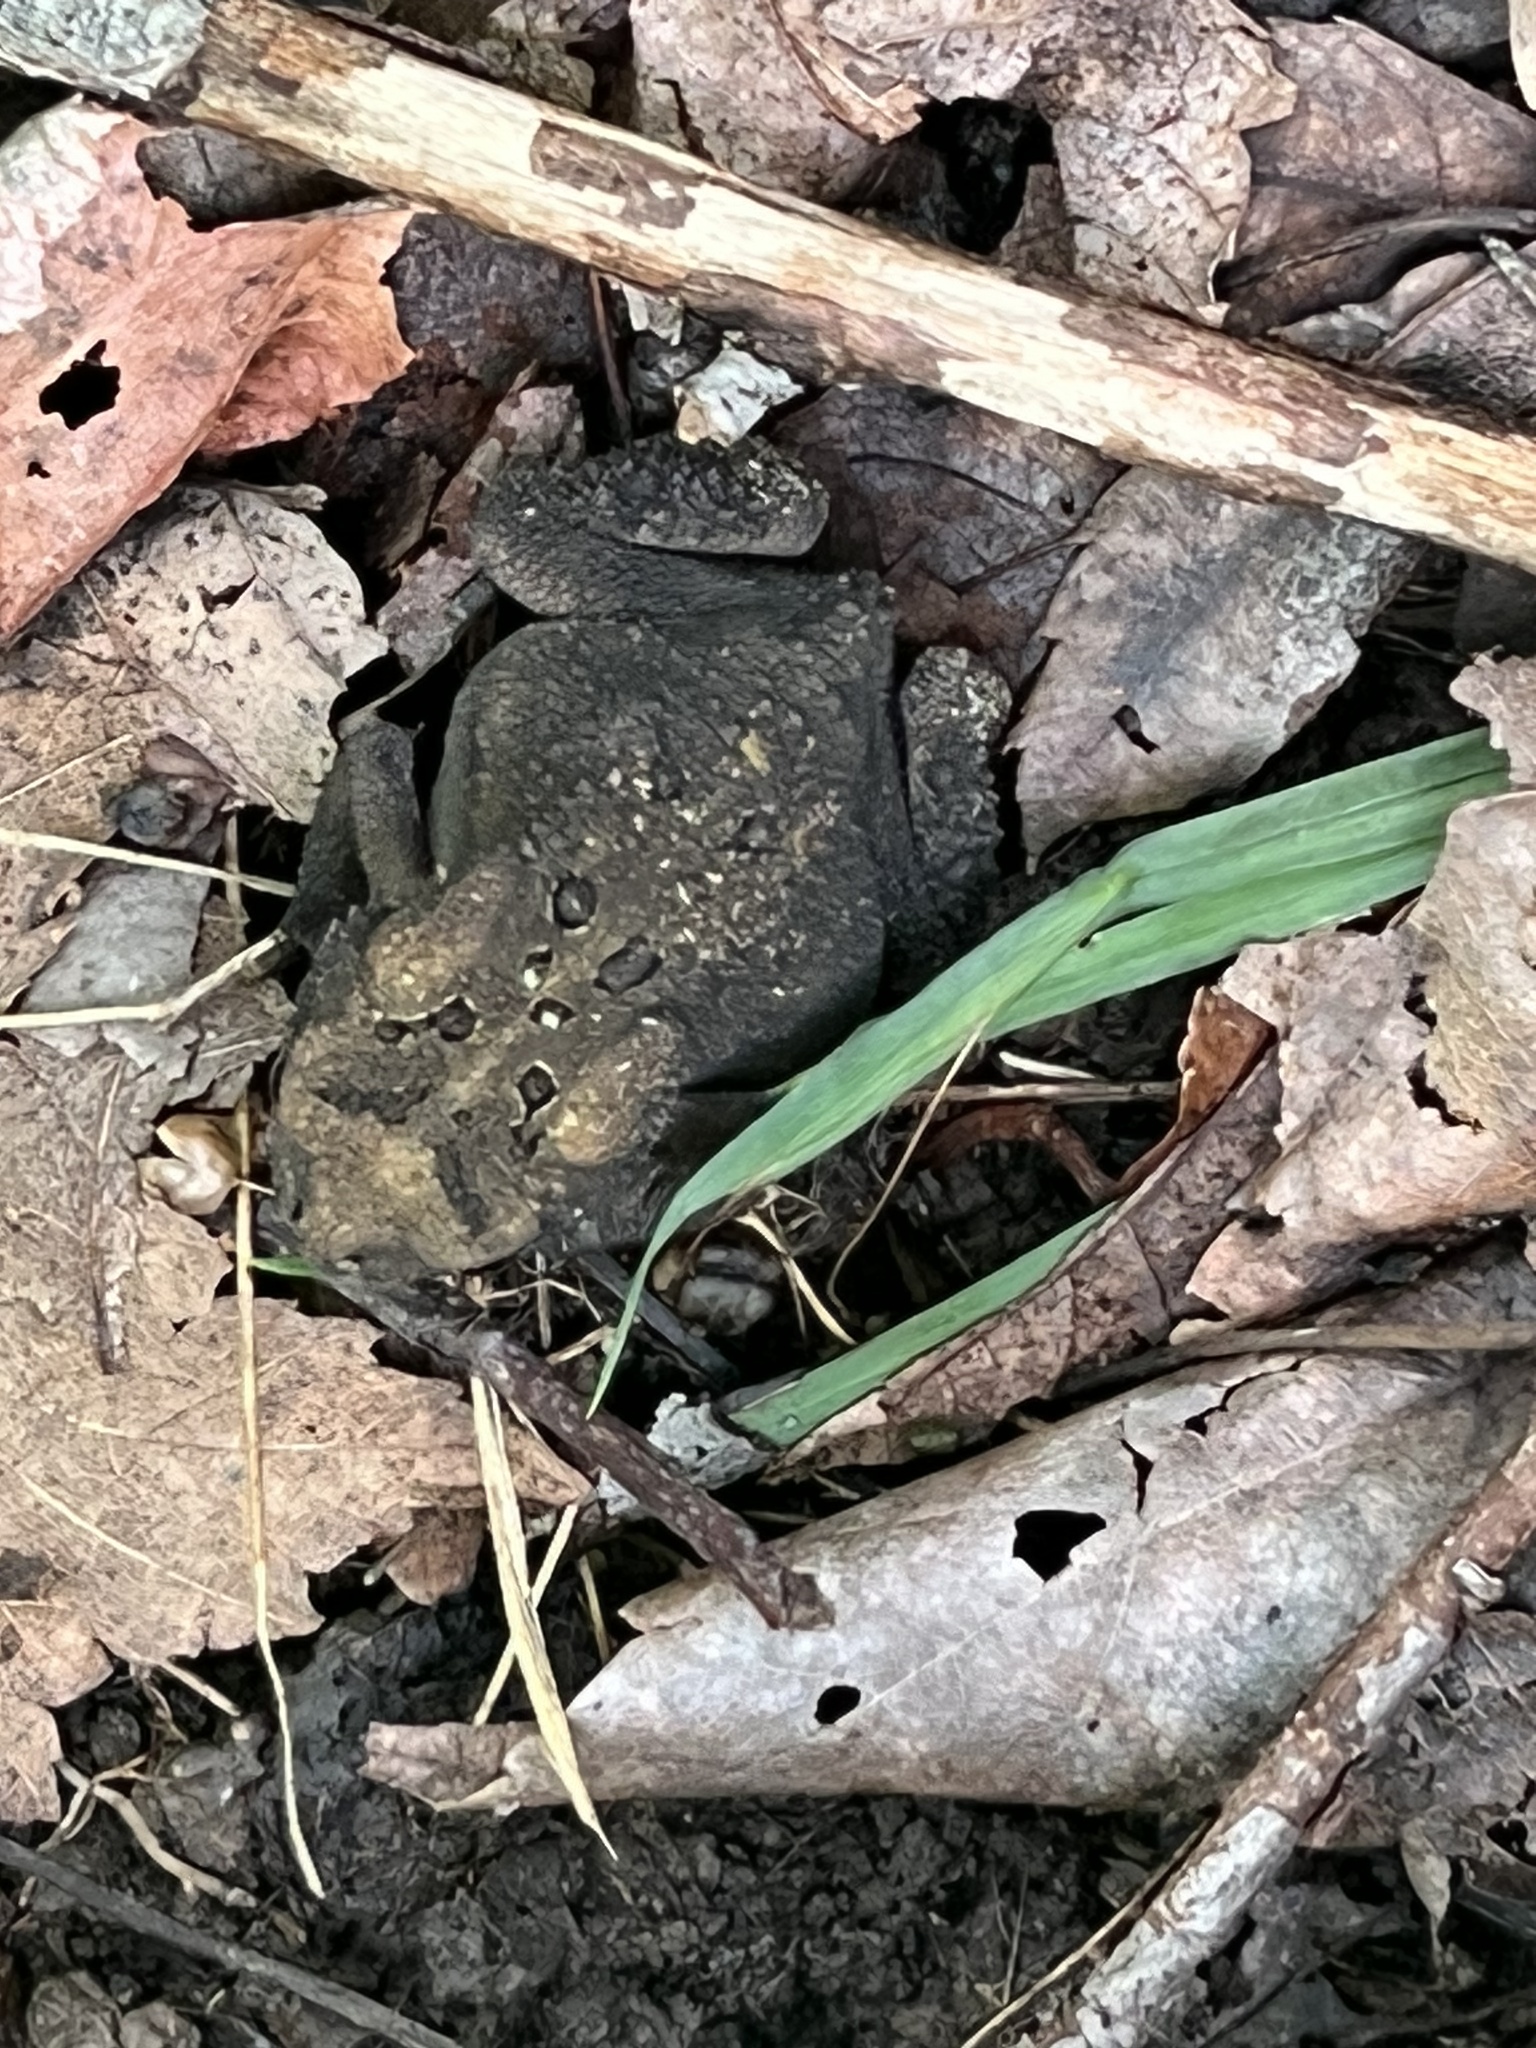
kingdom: Animalia
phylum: Chordata
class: Amphibia
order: Anura
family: Bufonidae
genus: Anaxyrus
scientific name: Anaxyrus americanus
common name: American toad
